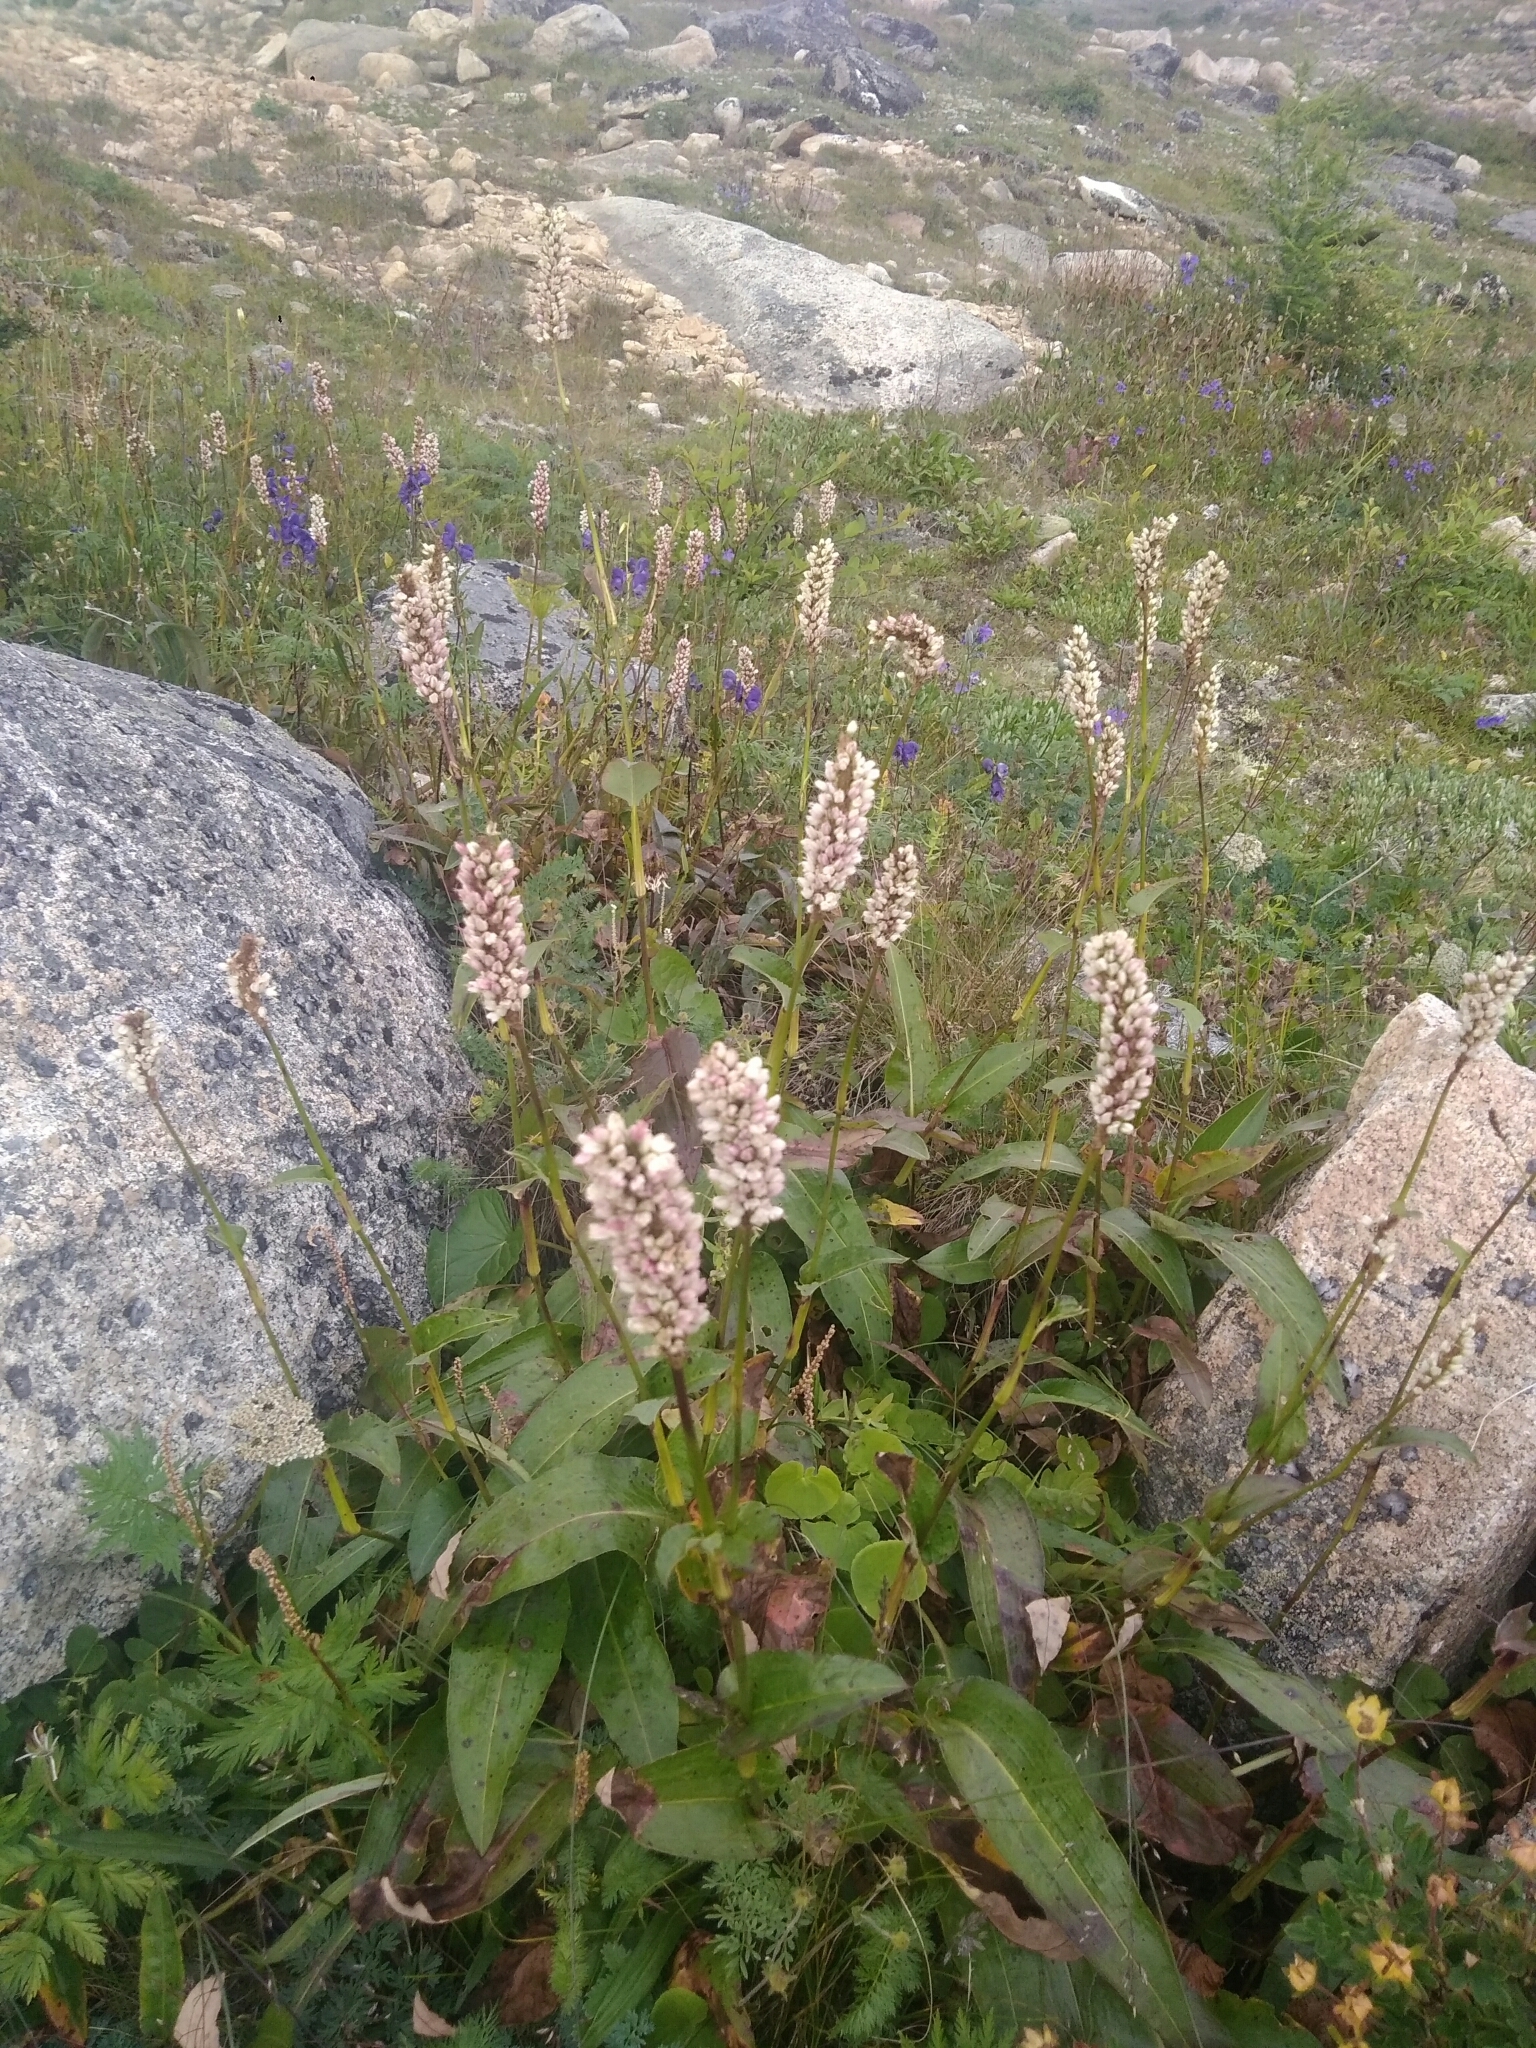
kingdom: Plantae
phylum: Tracheophyta
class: Magnoliopsida
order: Caryophyllales
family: Polygonaceae
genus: Bistorta
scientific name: Bistorta officinalis
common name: Common bistort
